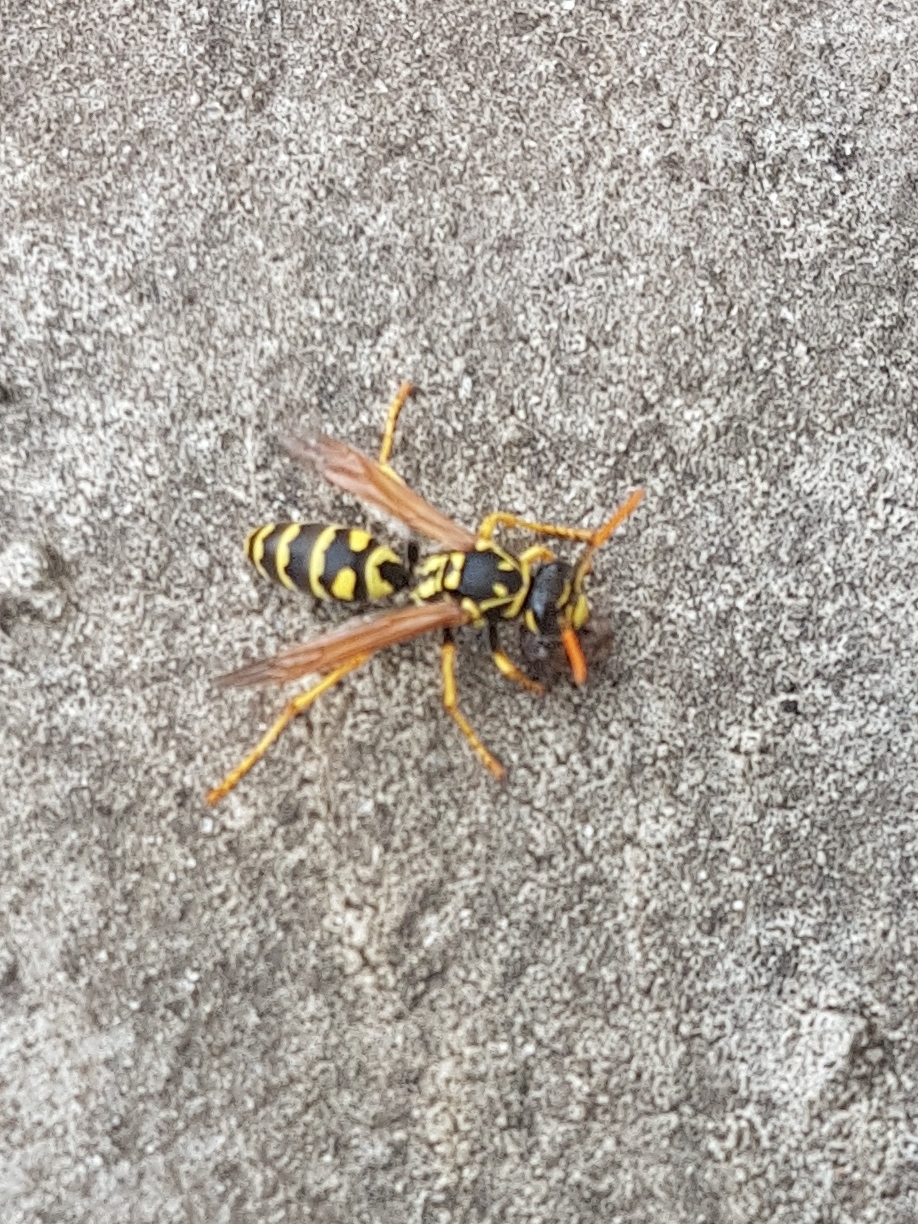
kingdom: Animalia
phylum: Arthropoda
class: Insecta
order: Hymenoptera
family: Eumenidae
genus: Polistes
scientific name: Polistes dominula
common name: Paper wasp
